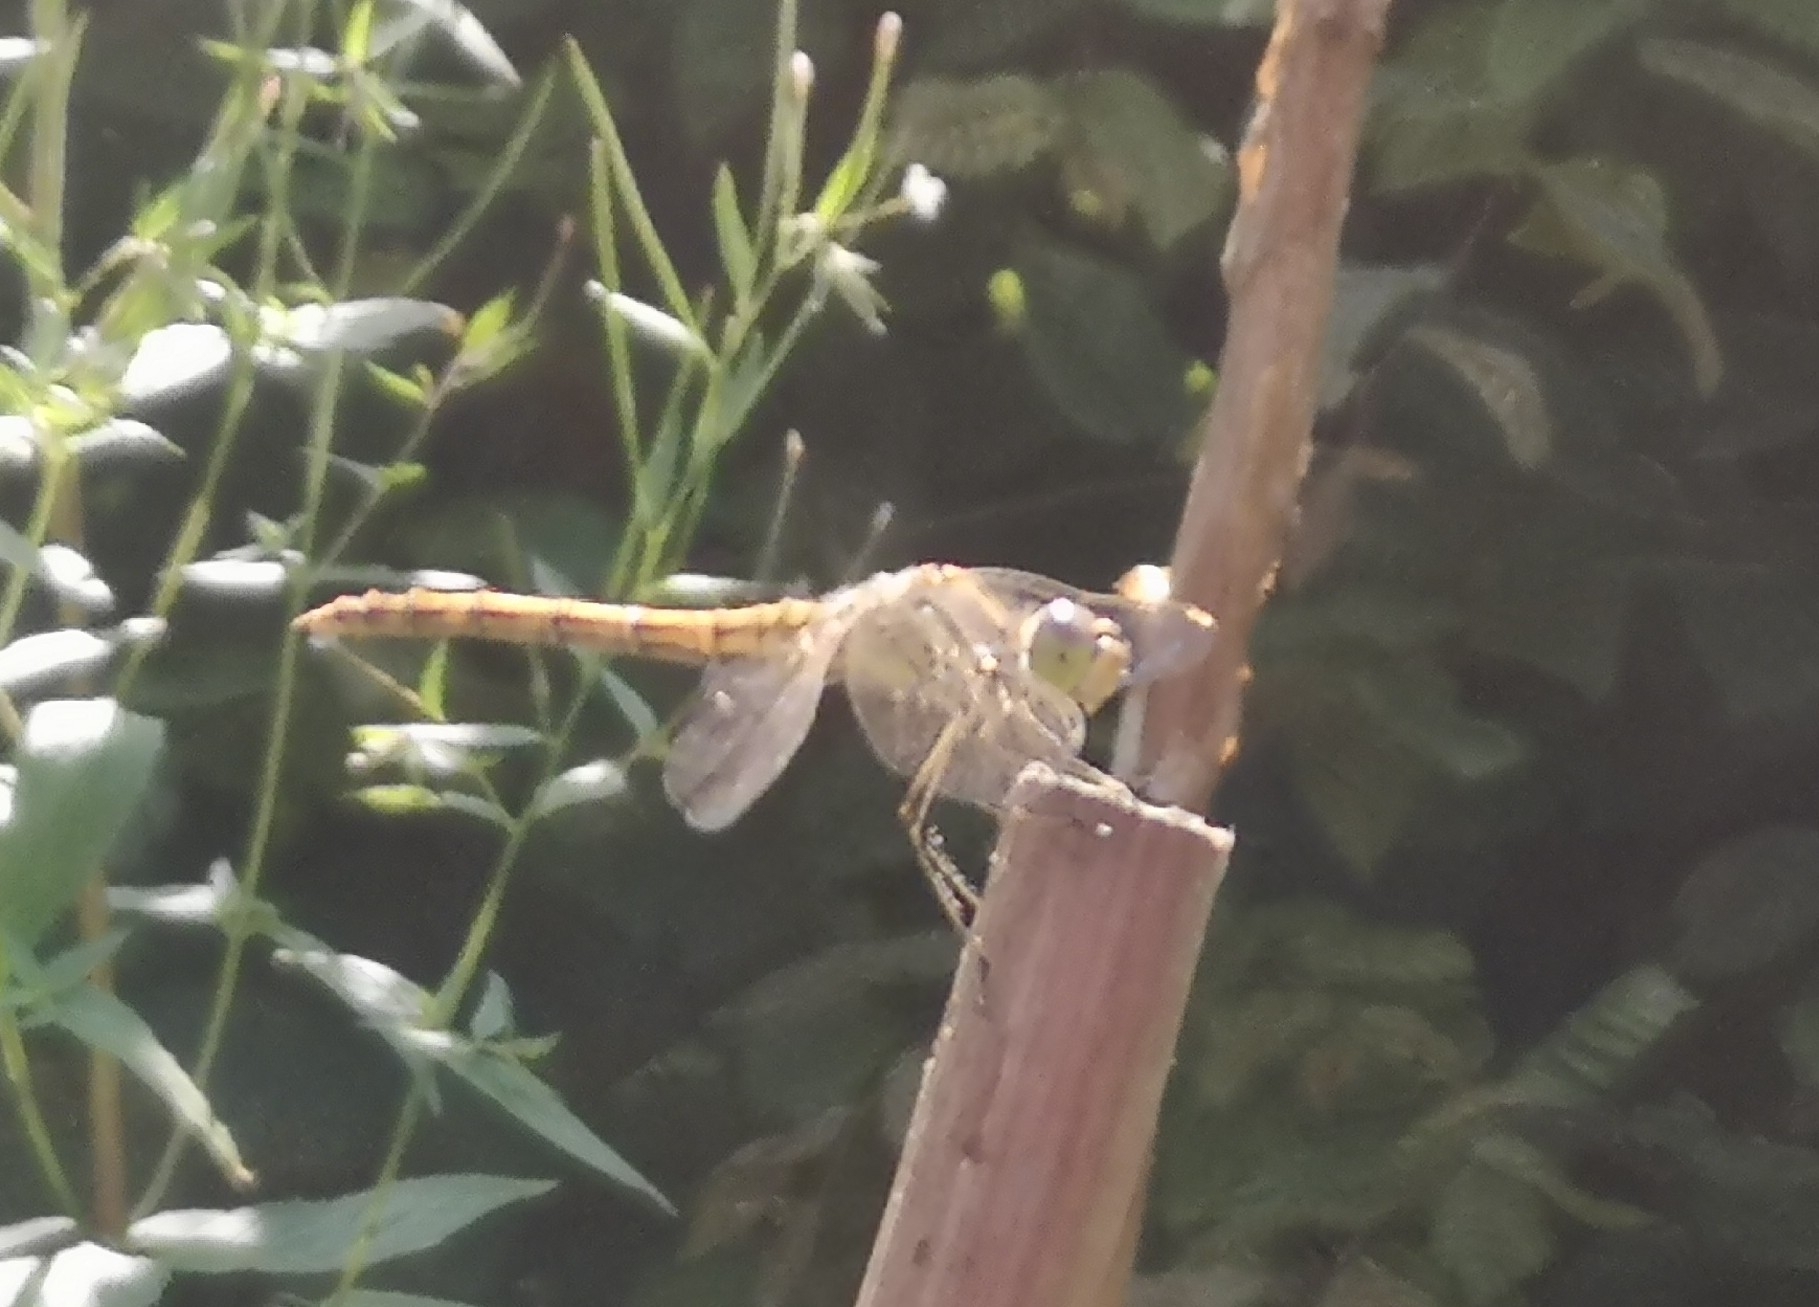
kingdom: Animalia
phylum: Arthropoda
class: Insecta
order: Odonata
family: Libellulidae
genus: Sympetrum
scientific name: Sympetrum vulgatum
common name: Vagrant darter
